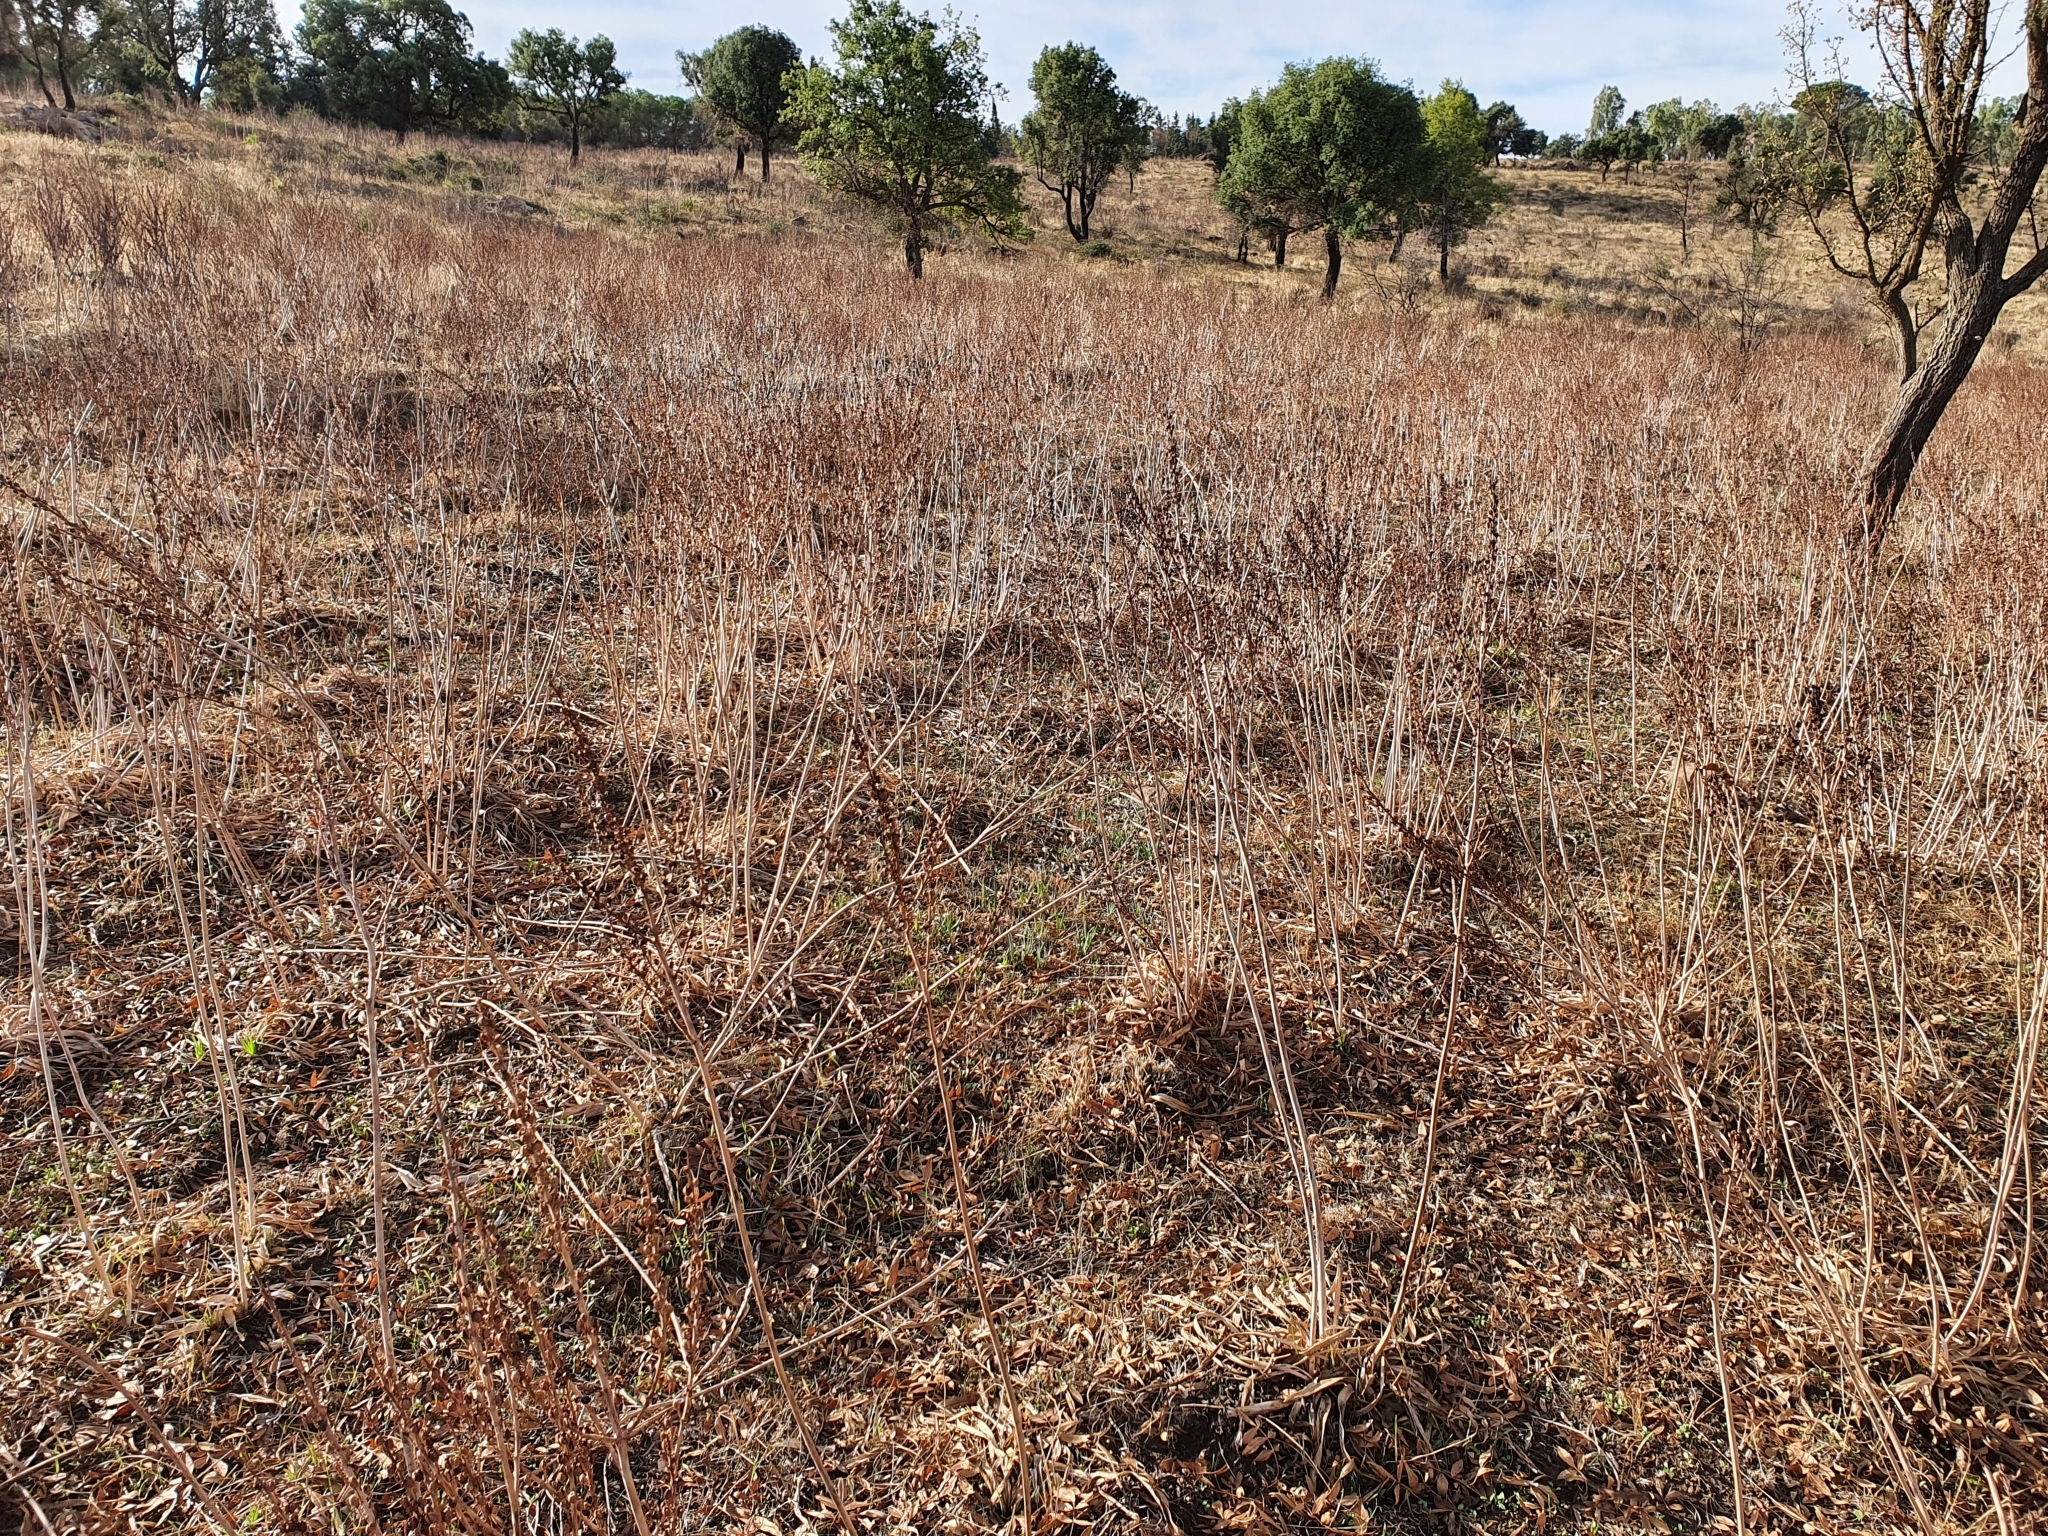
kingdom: Plantae
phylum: Tracheophyta
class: Liliopsida
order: Asparagales
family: Asphodelaceae
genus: Asphodelus
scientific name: Asphodelus ramosus
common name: Silverrod
